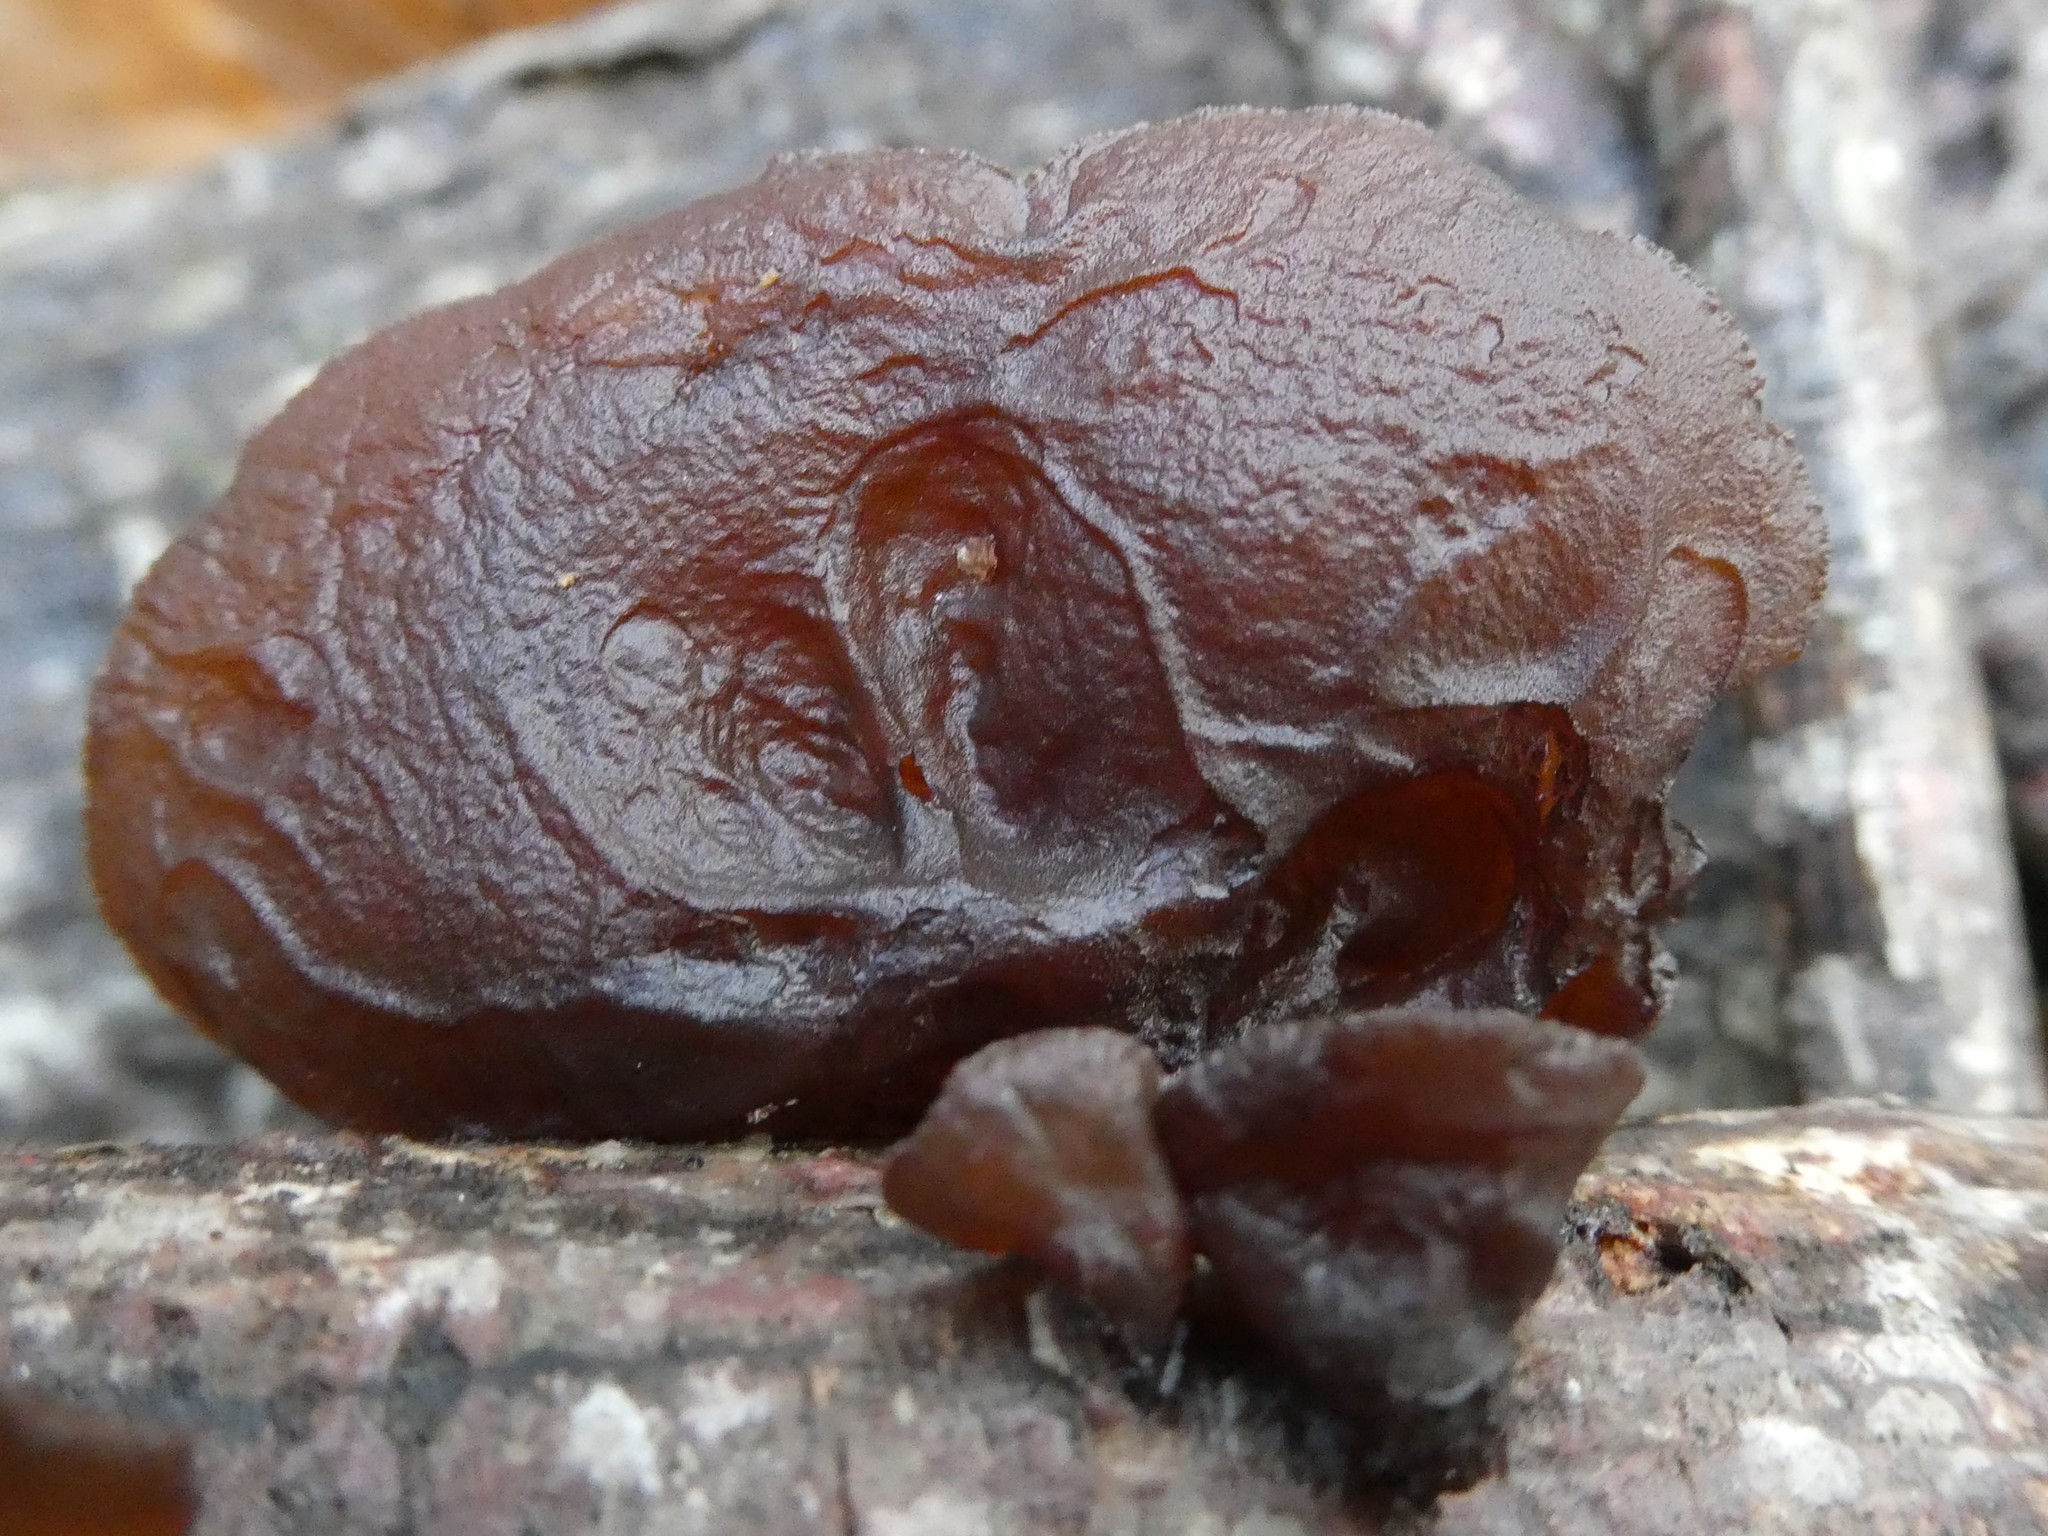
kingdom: Fungi
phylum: Basidiomycota
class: Agaricomycetes
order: Auriculariales
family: Auriculariaceae
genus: Exidia
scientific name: Exidia
